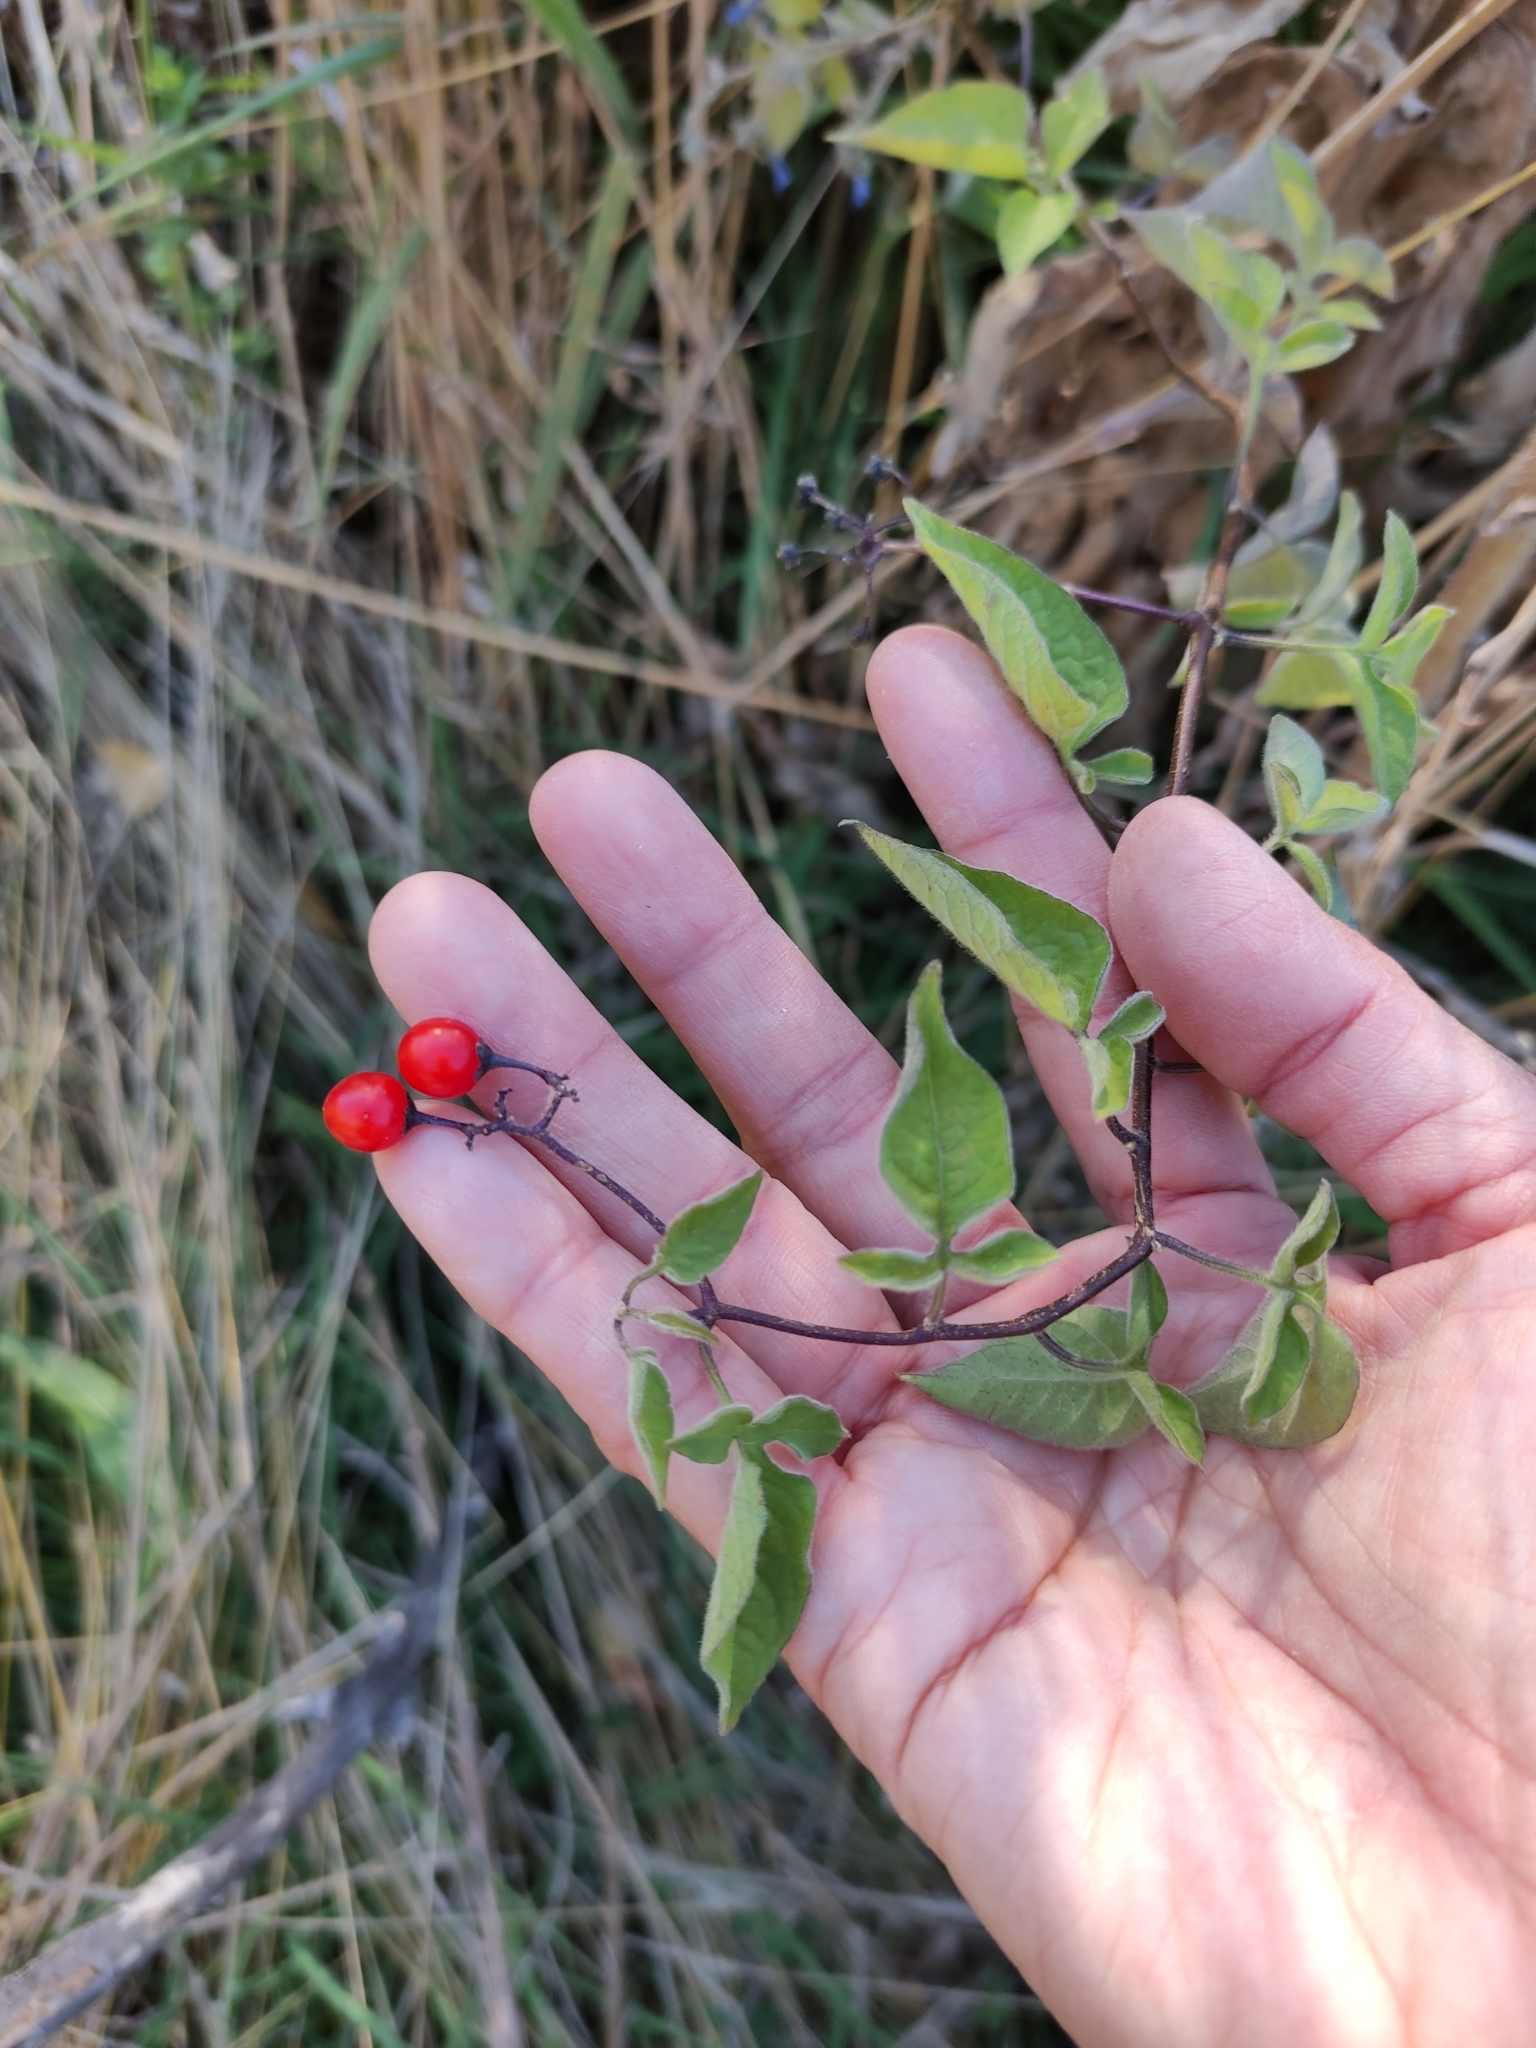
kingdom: Plantae
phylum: Tracheophyta
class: Magnoliopsida
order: Solanales
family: Solanaceae
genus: Solanum
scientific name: Solanum dulcamara
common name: Climbing nightshade
